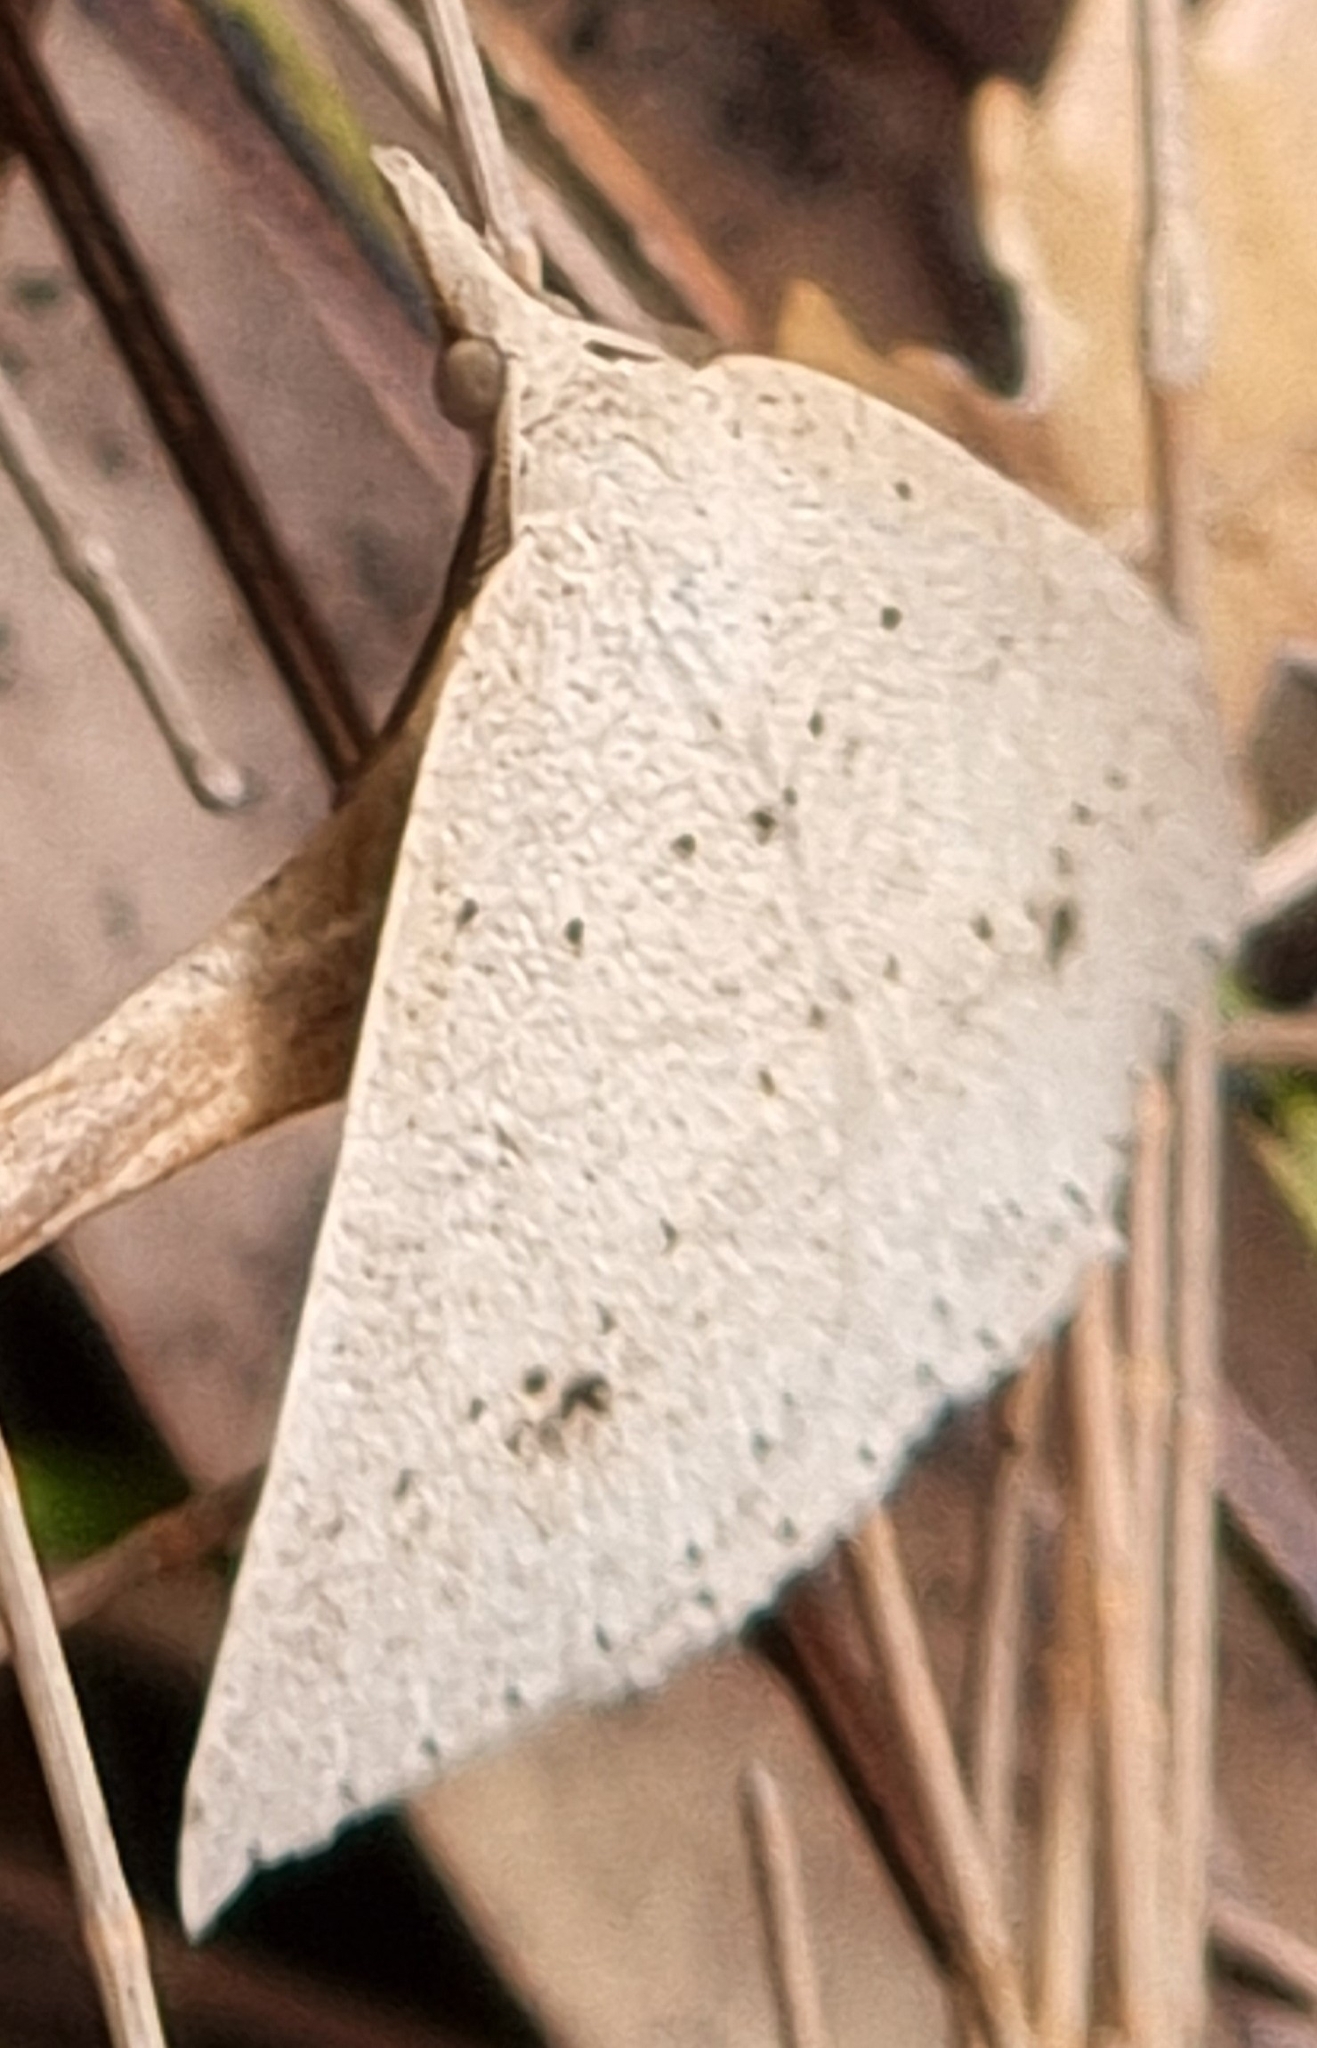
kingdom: Animalia
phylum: Arthropoda
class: Insecta
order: Lepidoptera
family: Geometridae
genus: Nearcha
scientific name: Nearcha nullata
